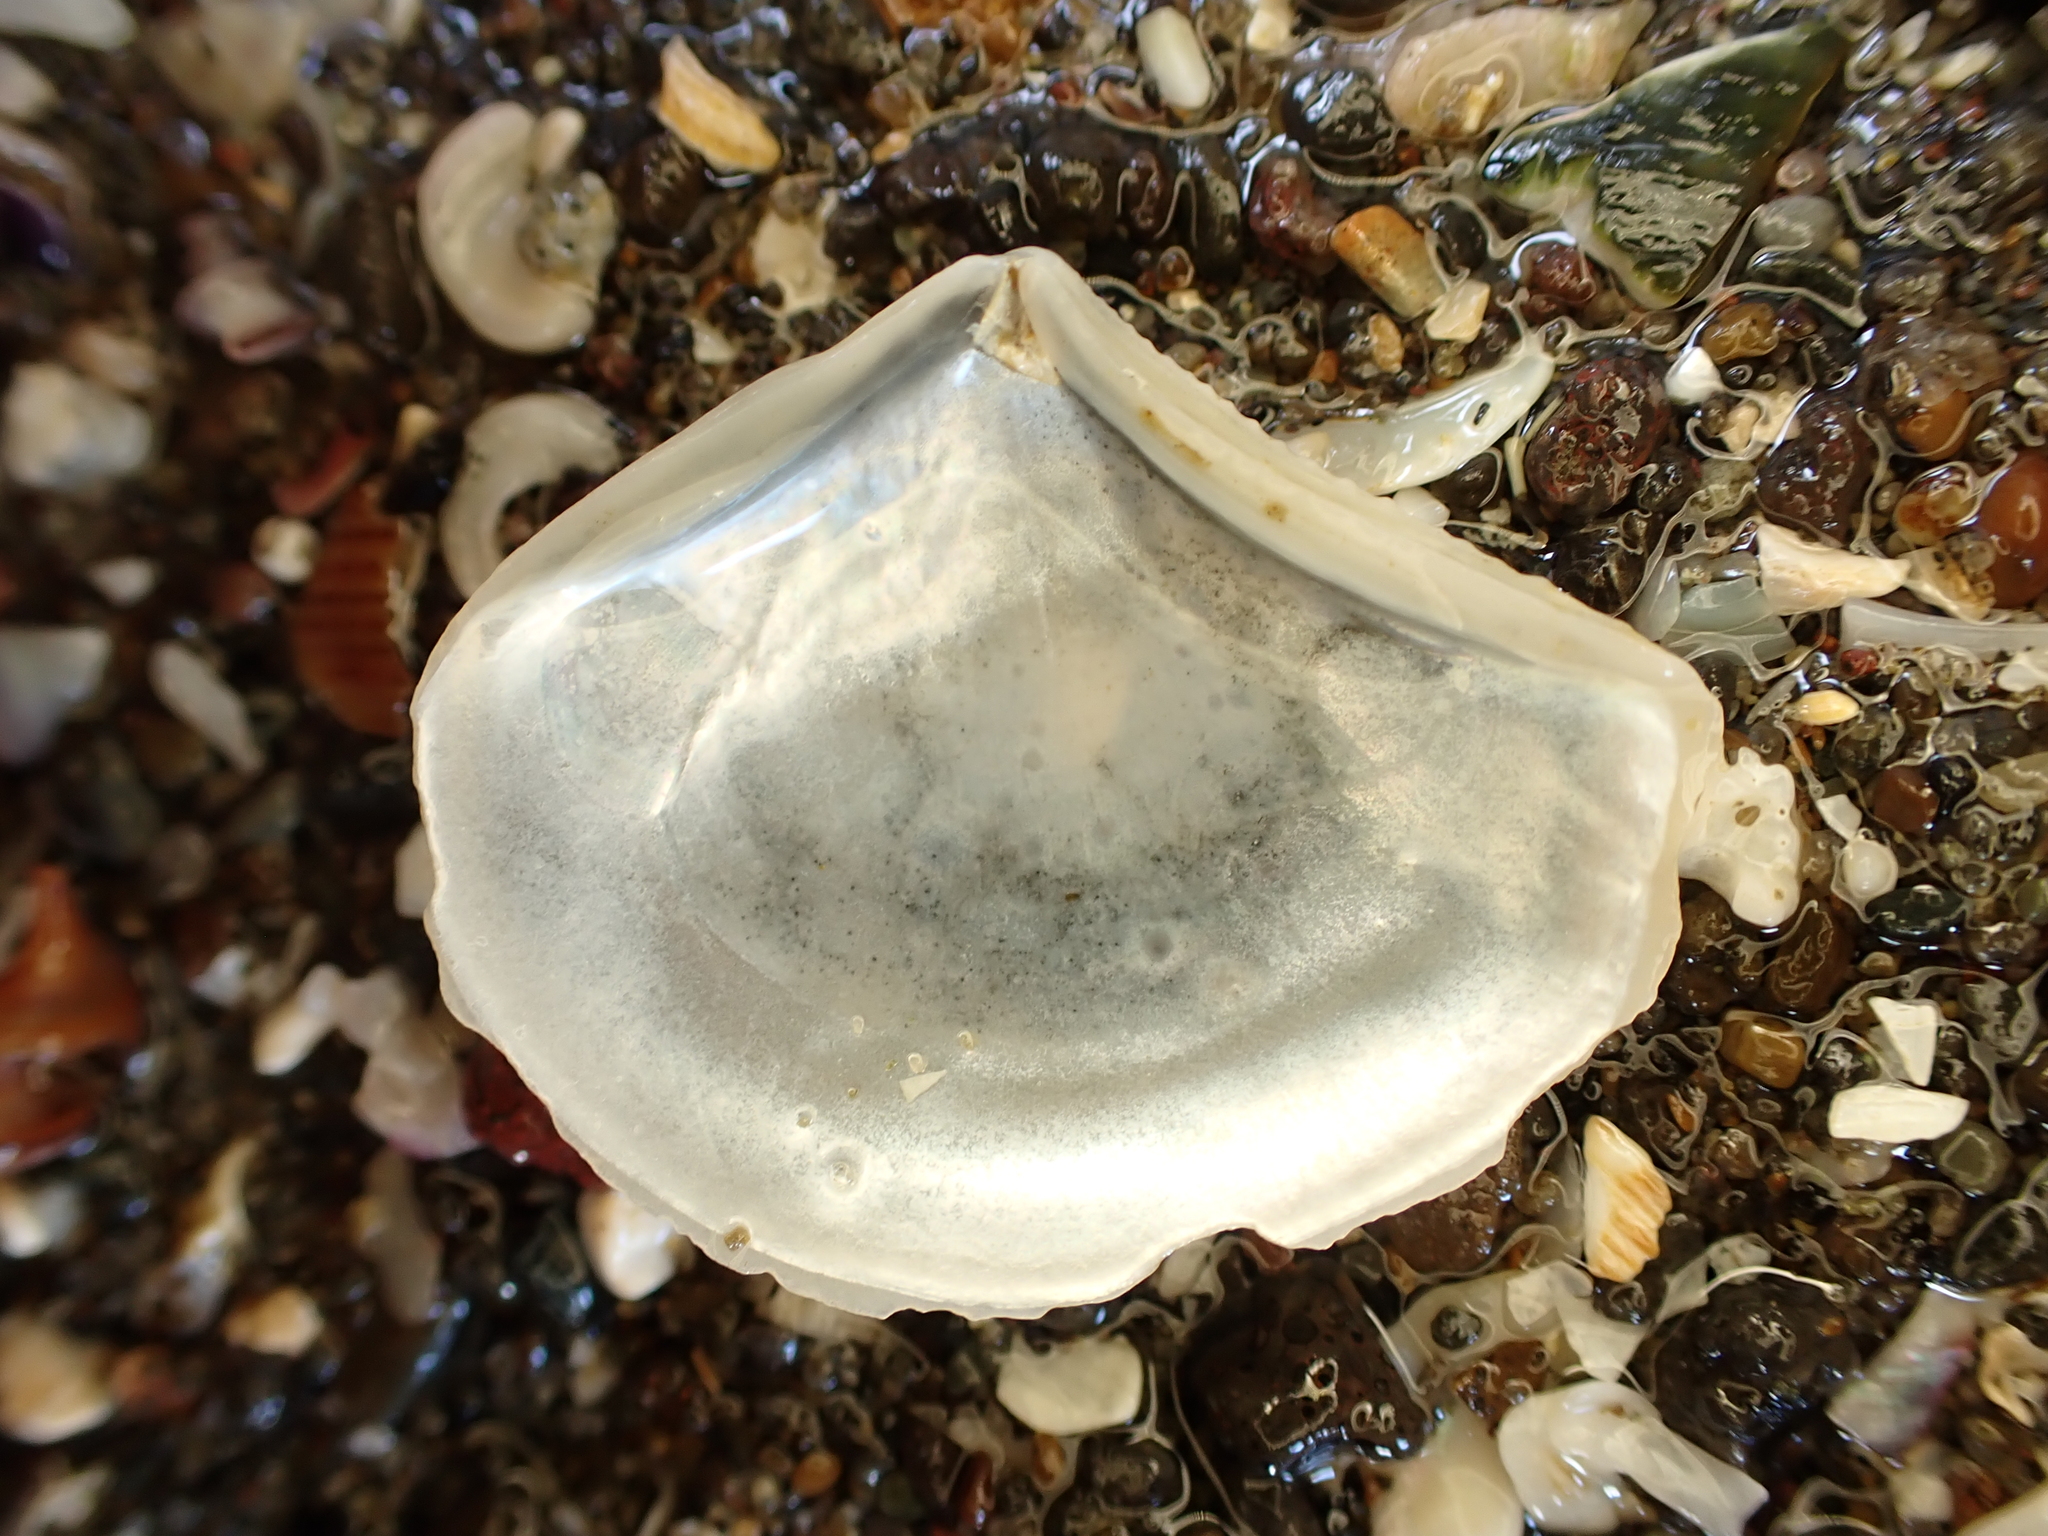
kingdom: Animalia
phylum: Mollusca
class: Bivalvia
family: Myochamidae
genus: Myadora
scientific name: Myadora striata
